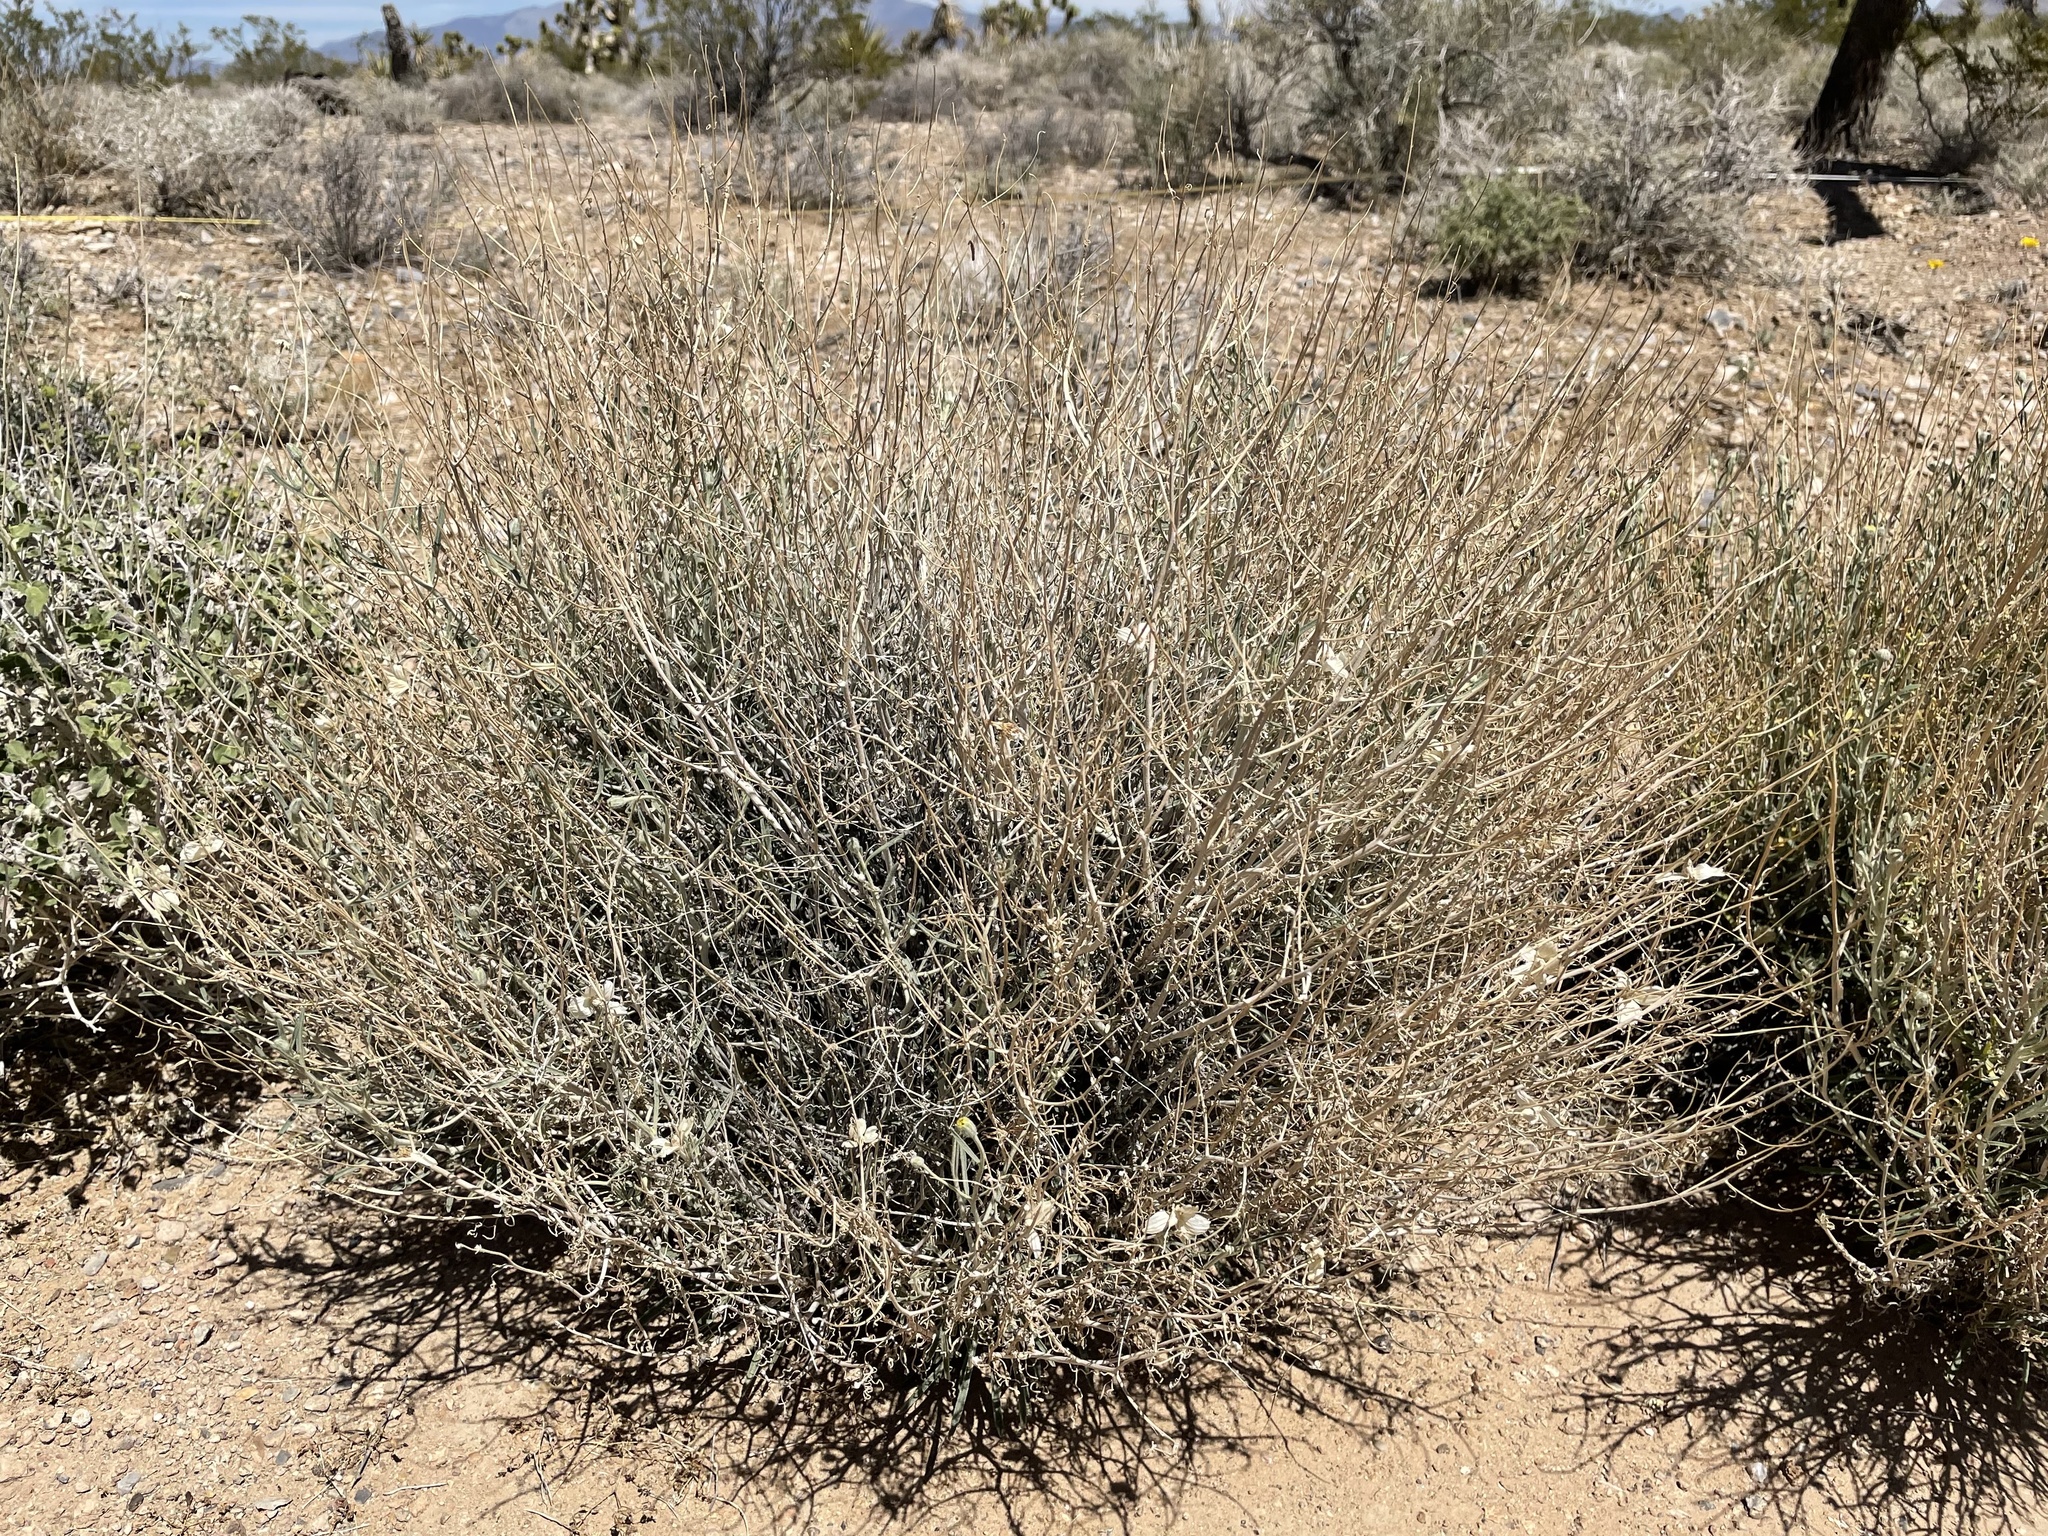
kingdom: Plantae
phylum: Tracheophyta
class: Magnoliopsida
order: Asterales
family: Asteraceae
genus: Psilostrophe
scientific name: Psilostrophe cooperi
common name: White-stem paper-flower
